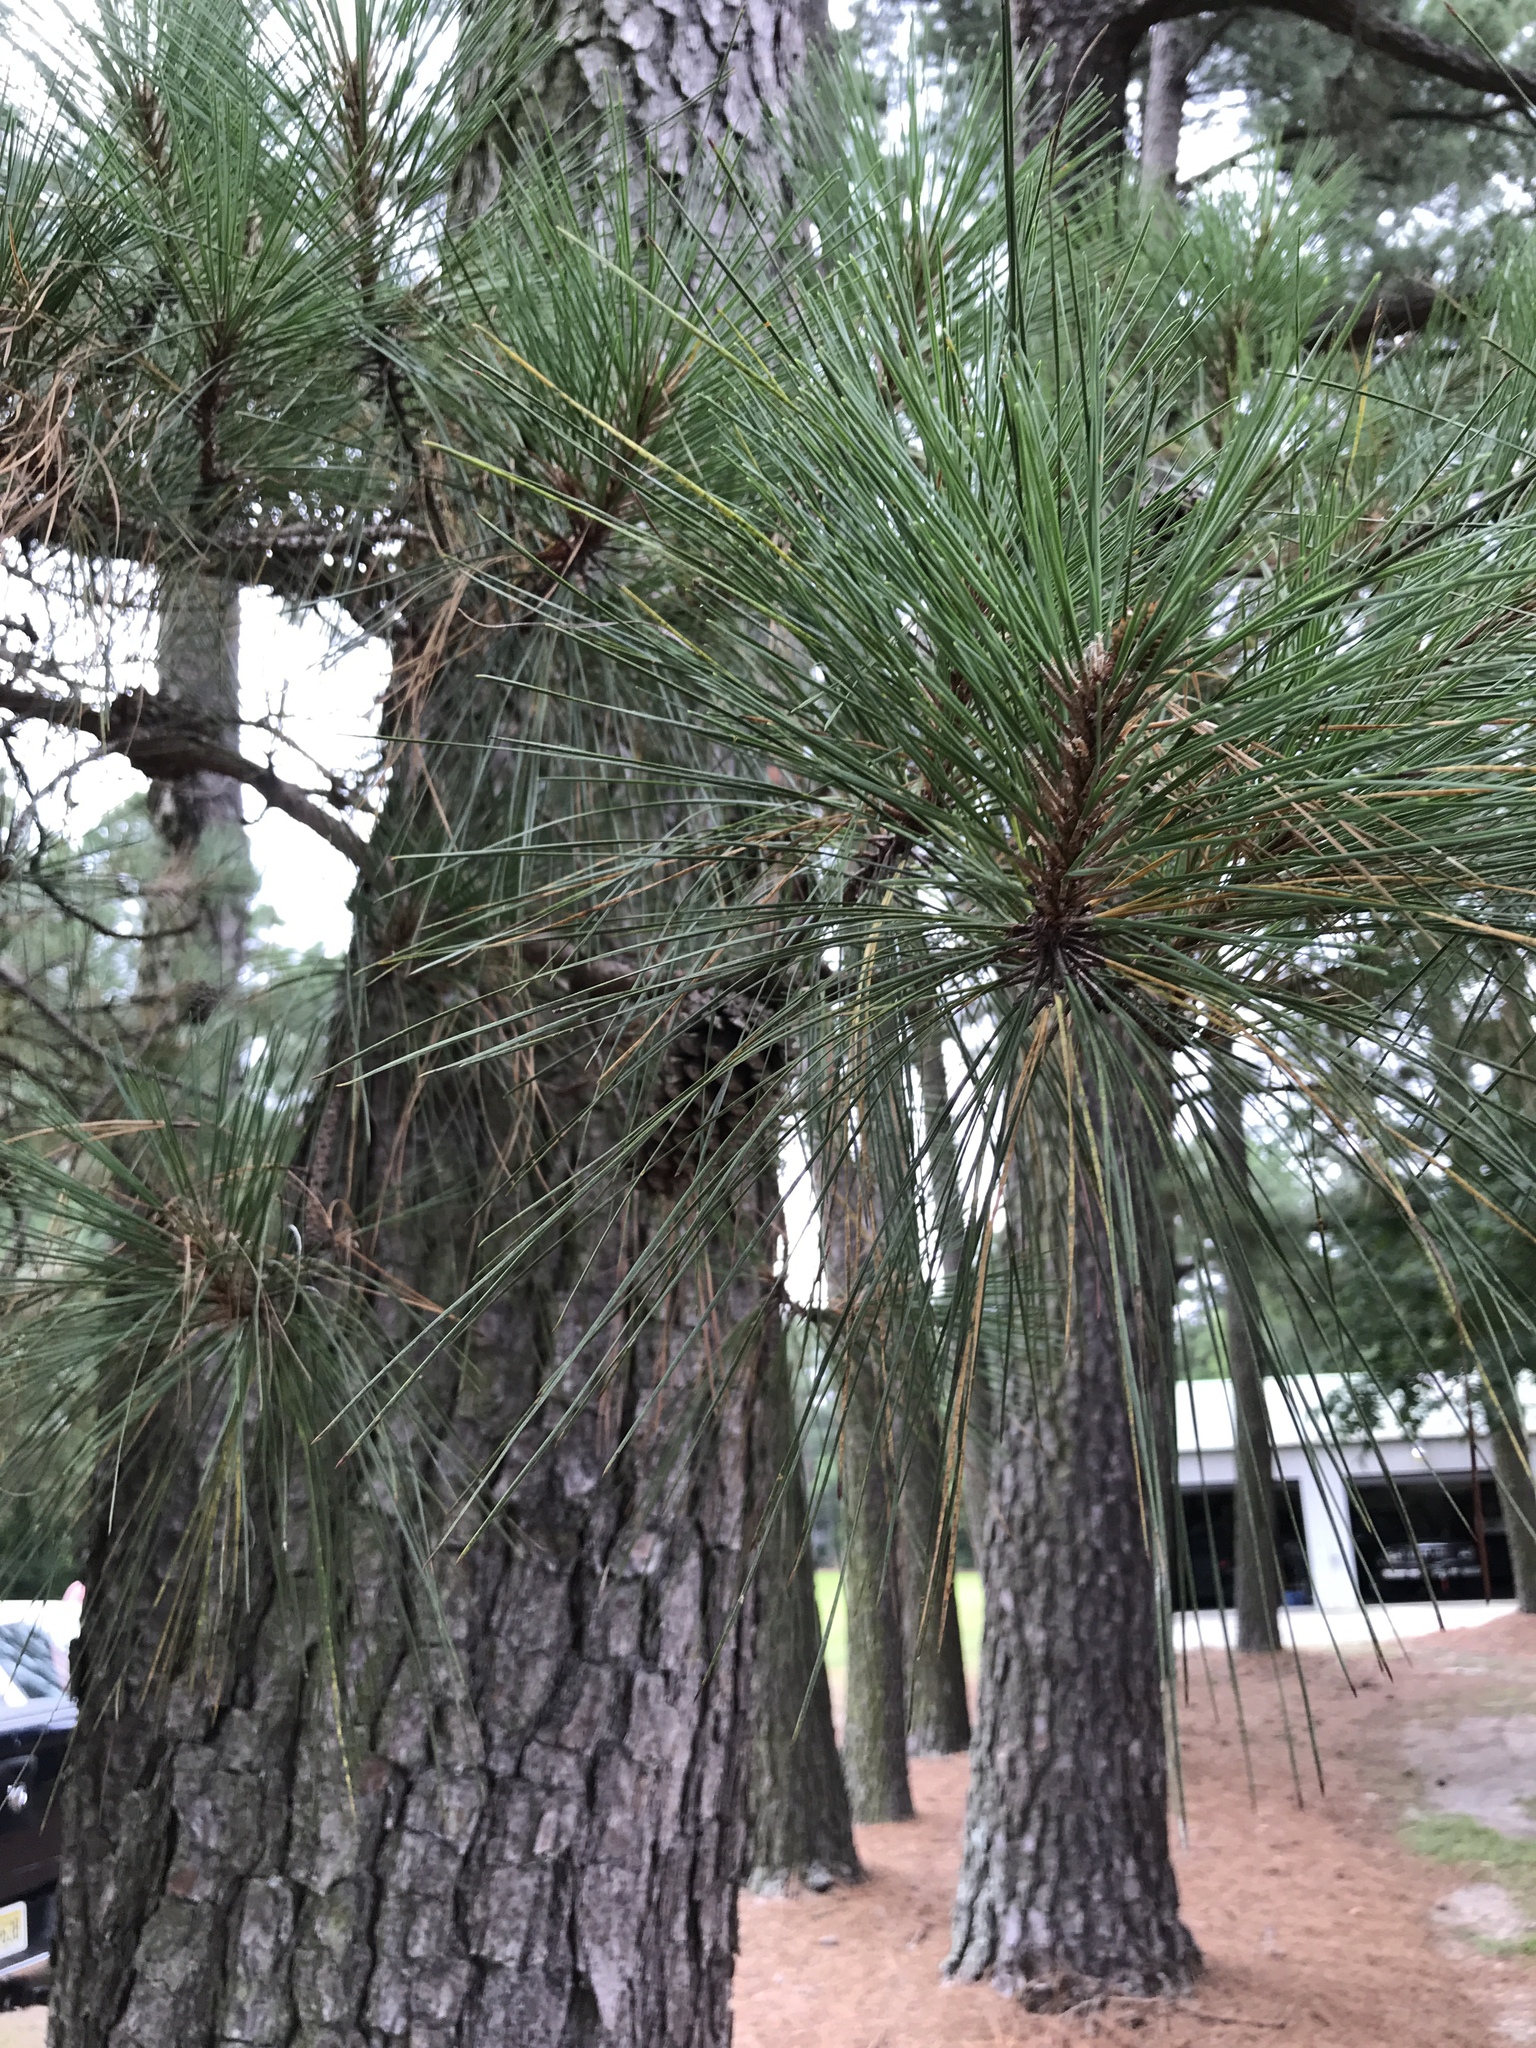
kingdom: Plantae
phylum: Tracheophyta
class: Pinopsida
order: Pinales
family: Pinaceae
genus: Pinus
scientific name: Pinus taeda
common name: Loblolly pine
